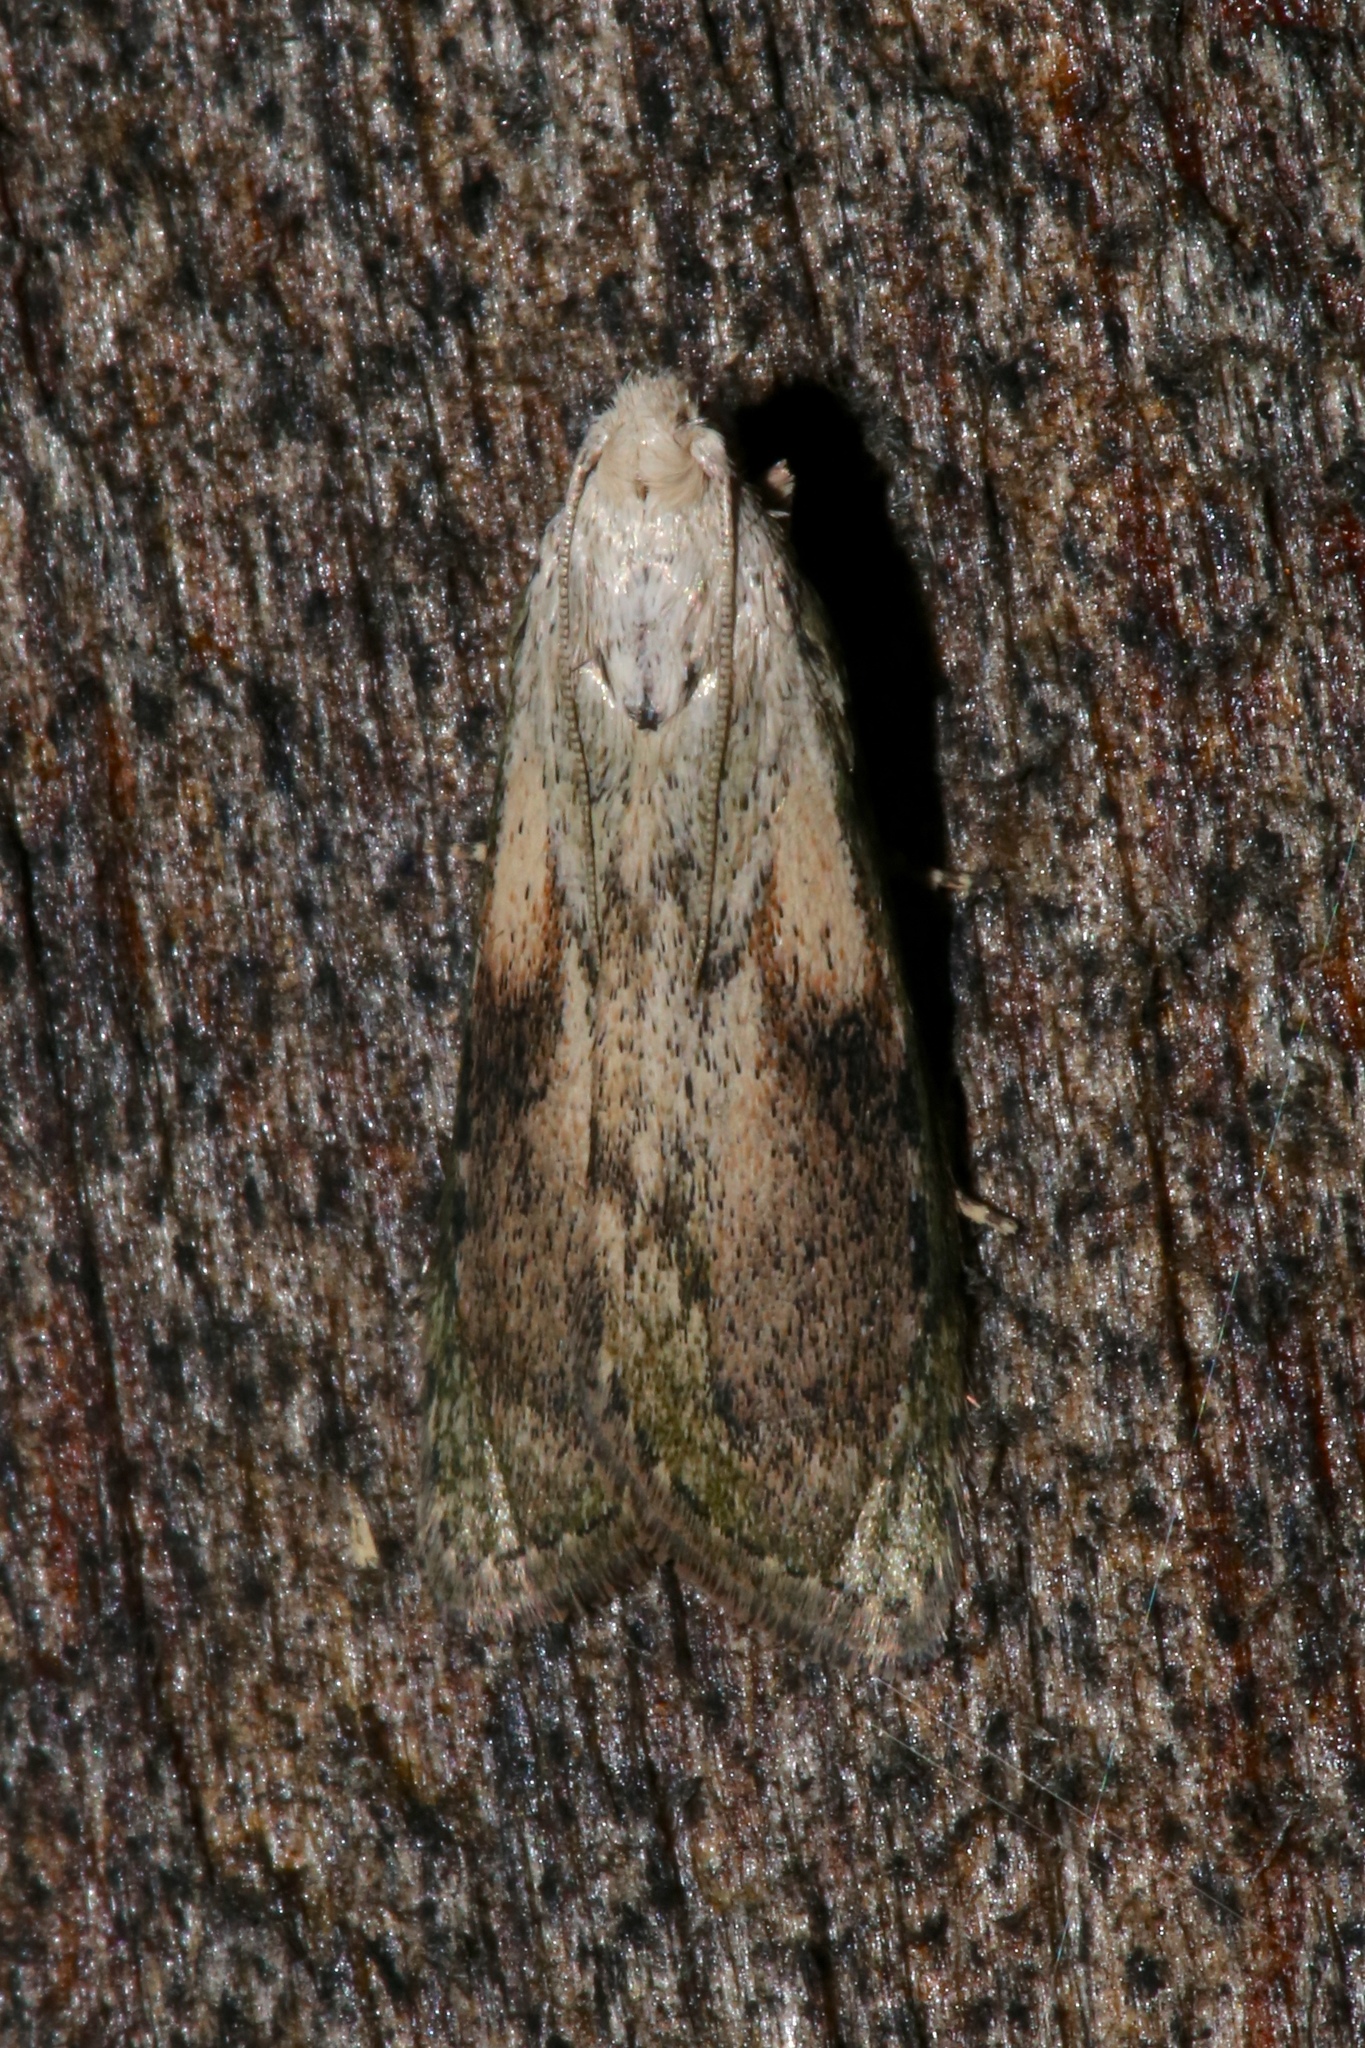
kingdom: Animalia
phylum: Arthropoda
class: Insecta
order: Lepidoptera
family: Pyralidae
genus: Aphomia
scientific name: Aphomia sociella
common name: Bee moth
